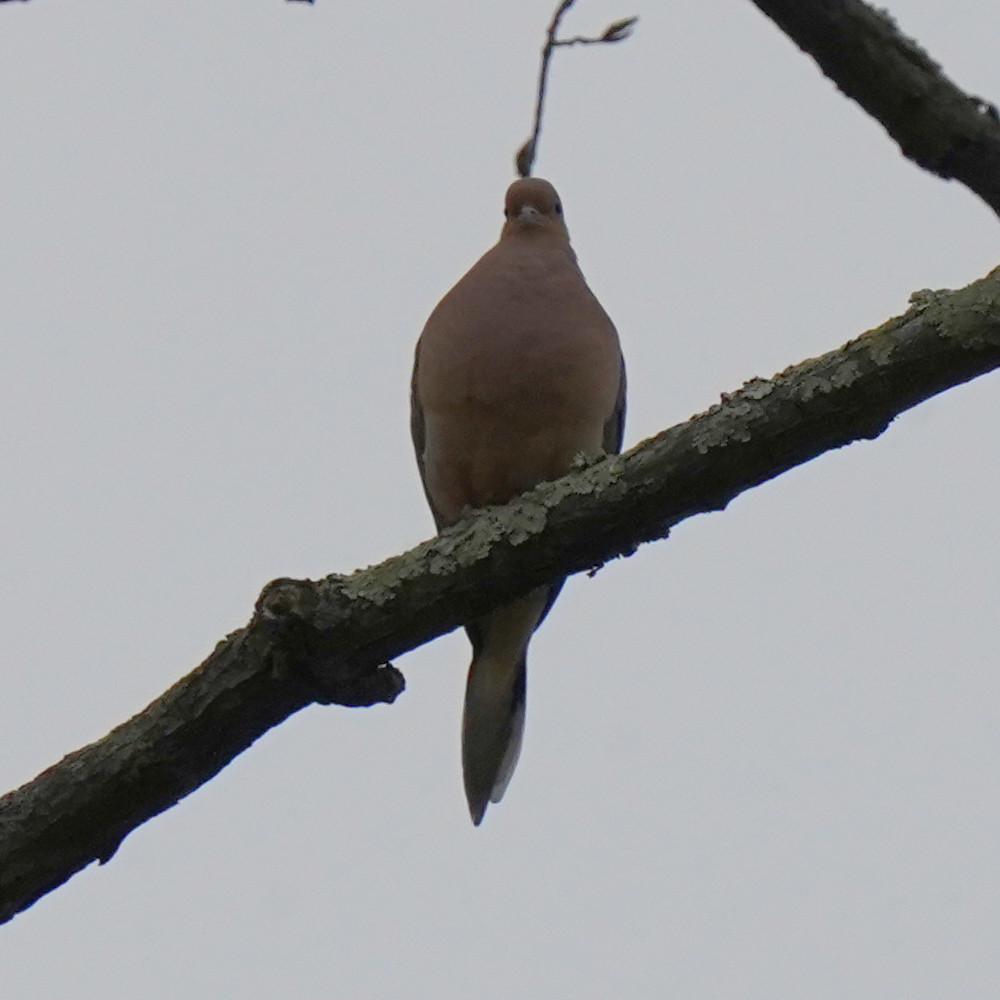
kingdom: Animalia
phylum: Chordata
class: Aves
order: Columbiformes
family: Columbidae
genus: Zenaida
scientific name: Zenaida macroura
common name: Mourning dove
